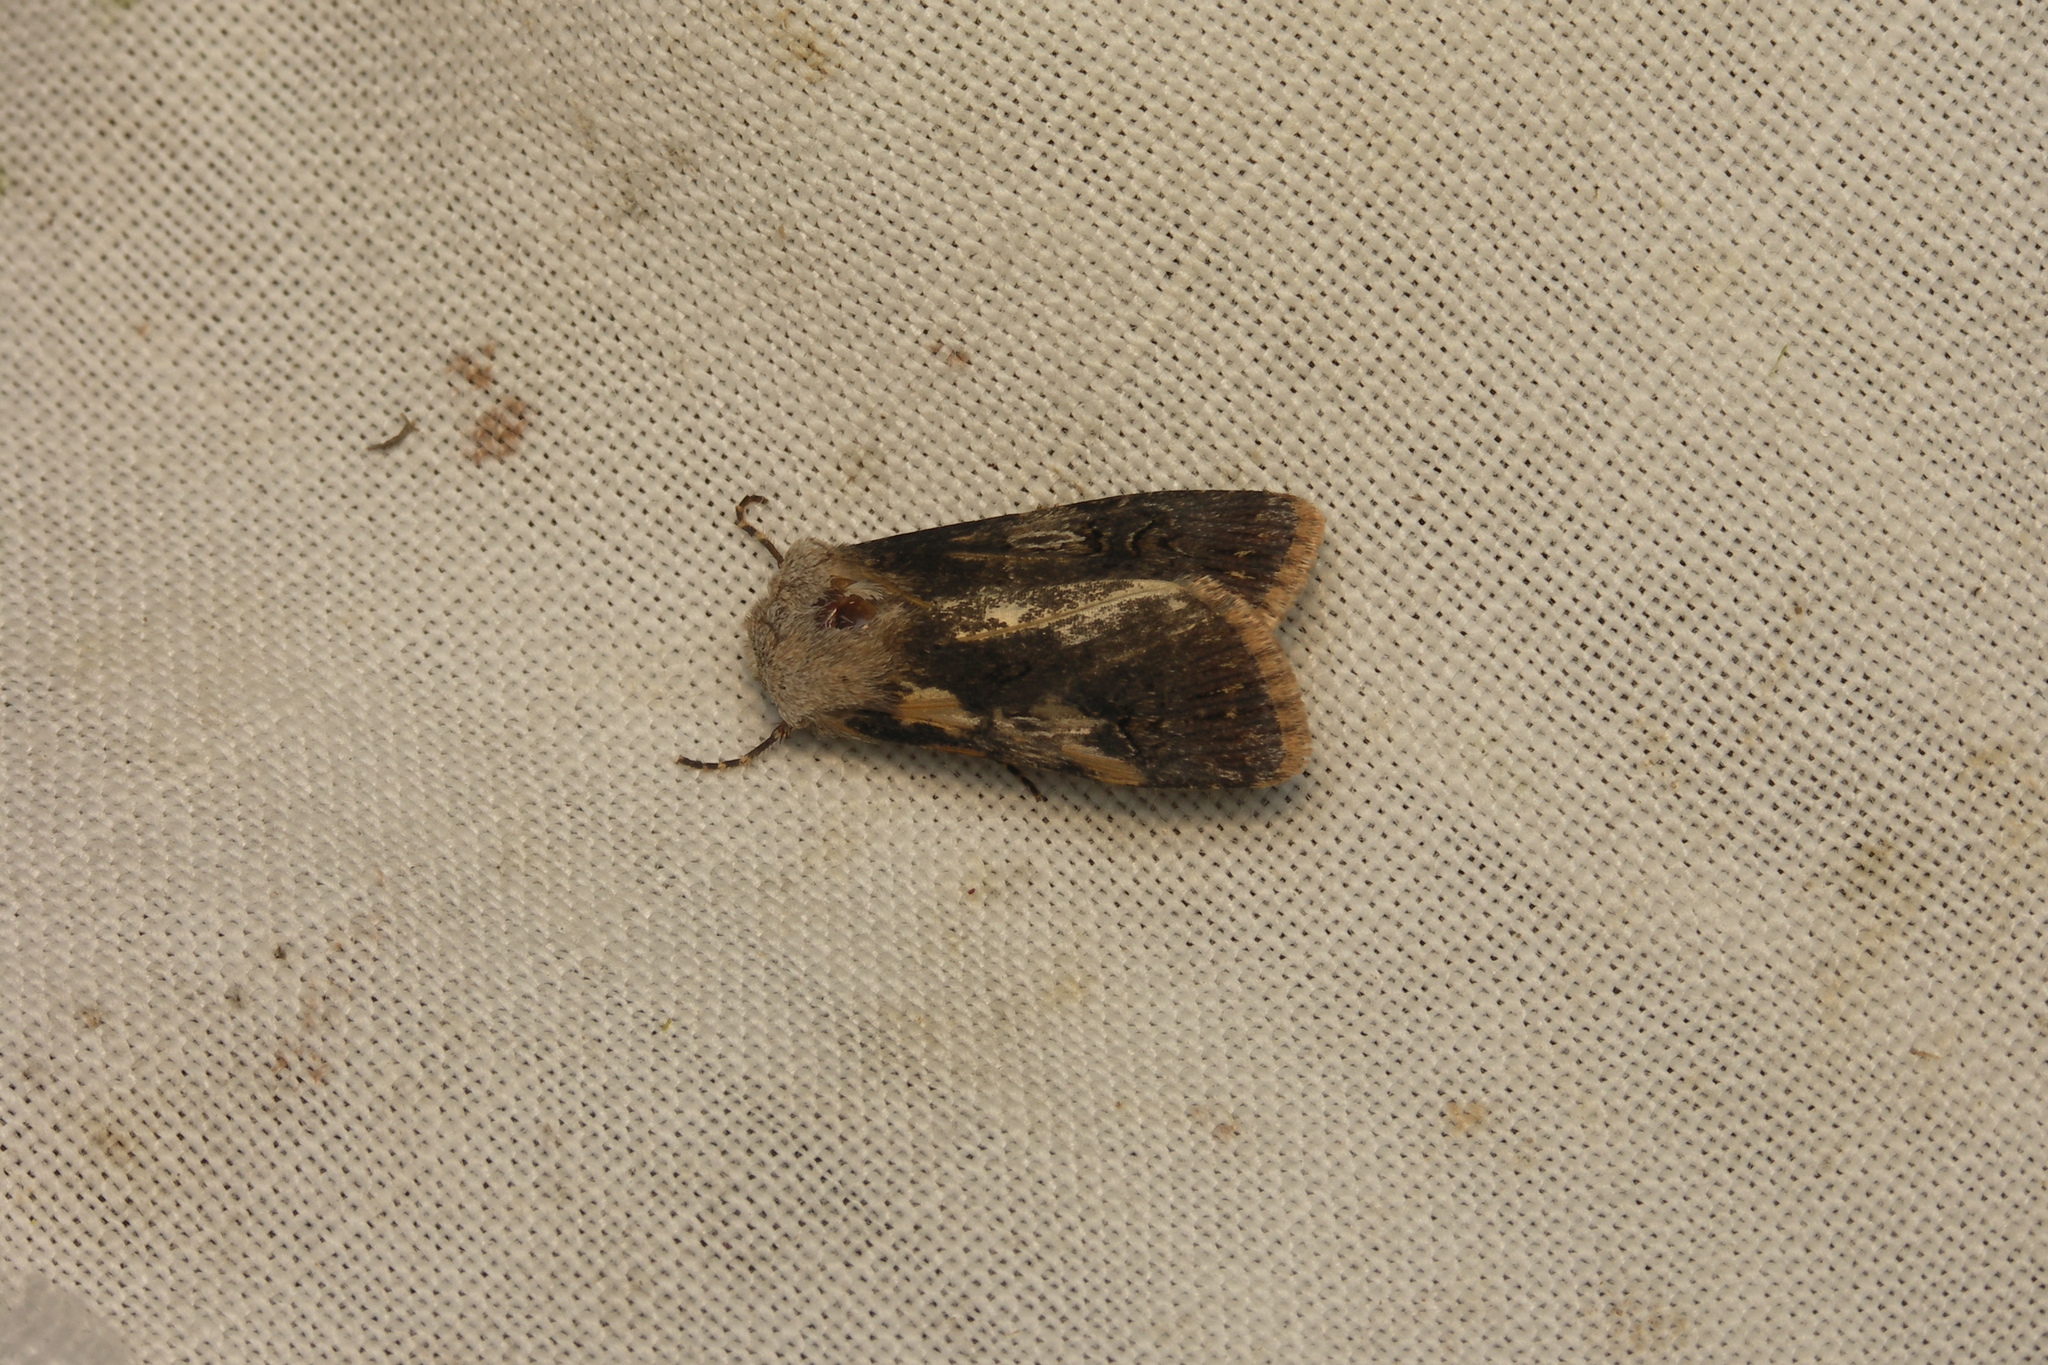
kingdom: Animalia
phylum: Arthropoda
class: Insecta
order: Lepidoptera
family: Noctuidae
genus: Agrotis
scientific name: Agrotis puta
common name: Shuttle-shaped dart
